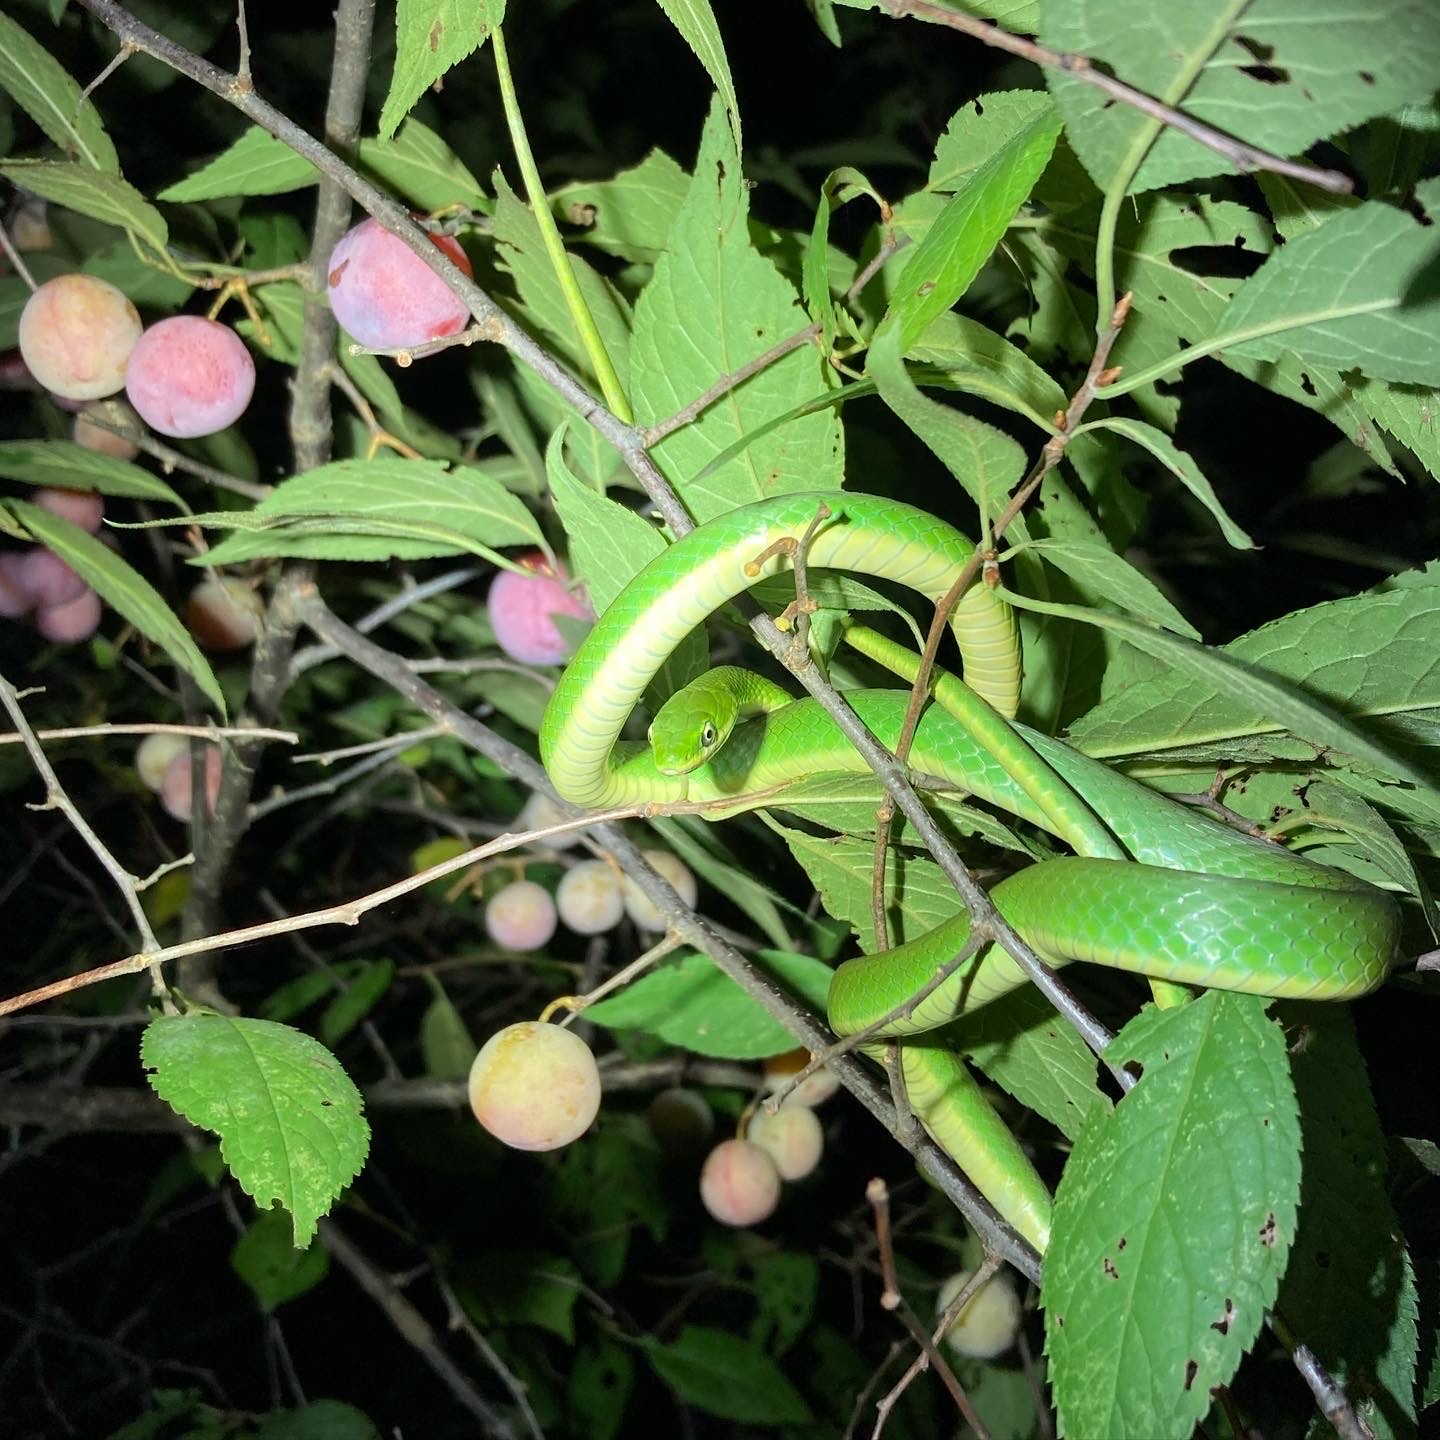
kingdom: Plantae
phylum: Tracheophyta
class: Magnoliopsida
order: Rosales
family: Rosaceae
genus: Prunus
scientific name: Prunus angustifolia
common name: Cherokee plum
